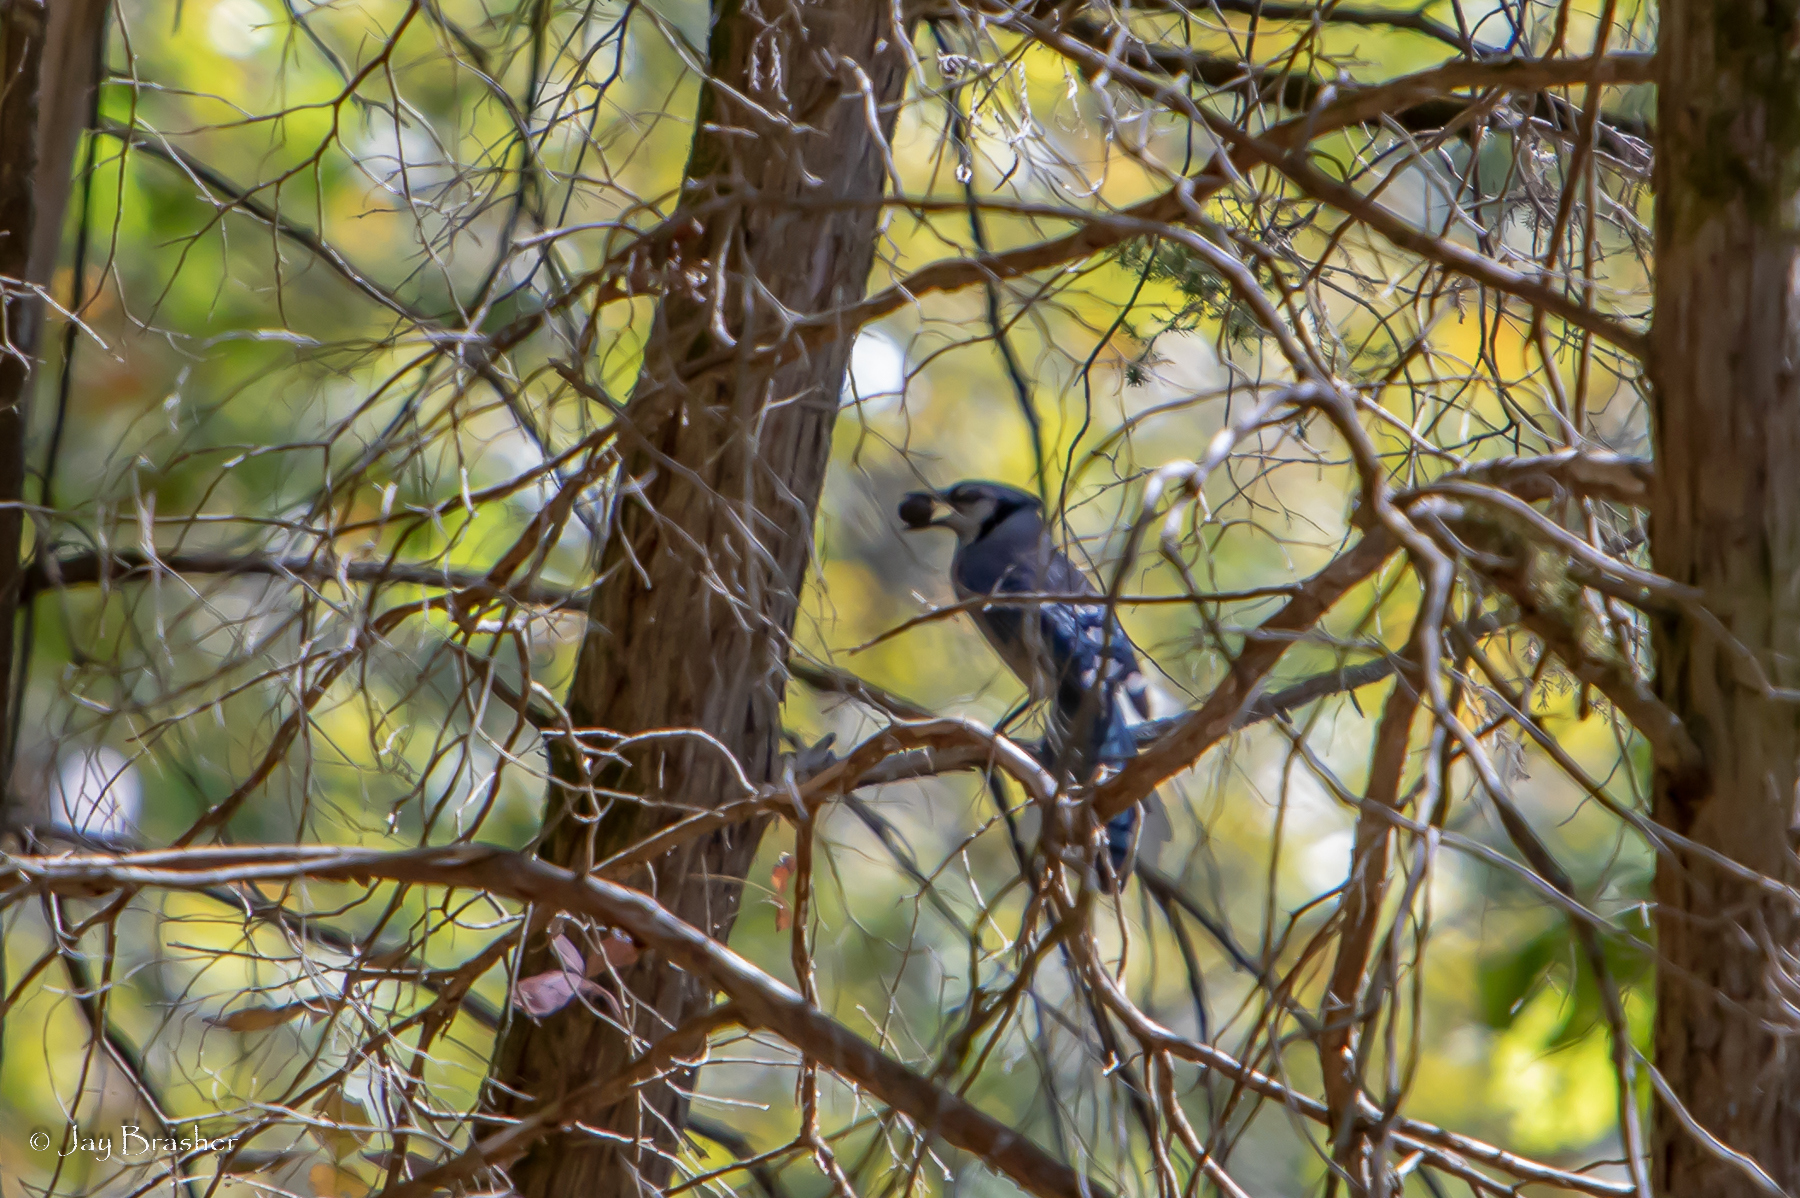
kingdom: Animalia
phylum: Chordata
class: Aves
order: Passeriformes
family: Corvidae
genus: Cyanocitta
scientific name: Cyanocitta cristata
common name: Blue jay
